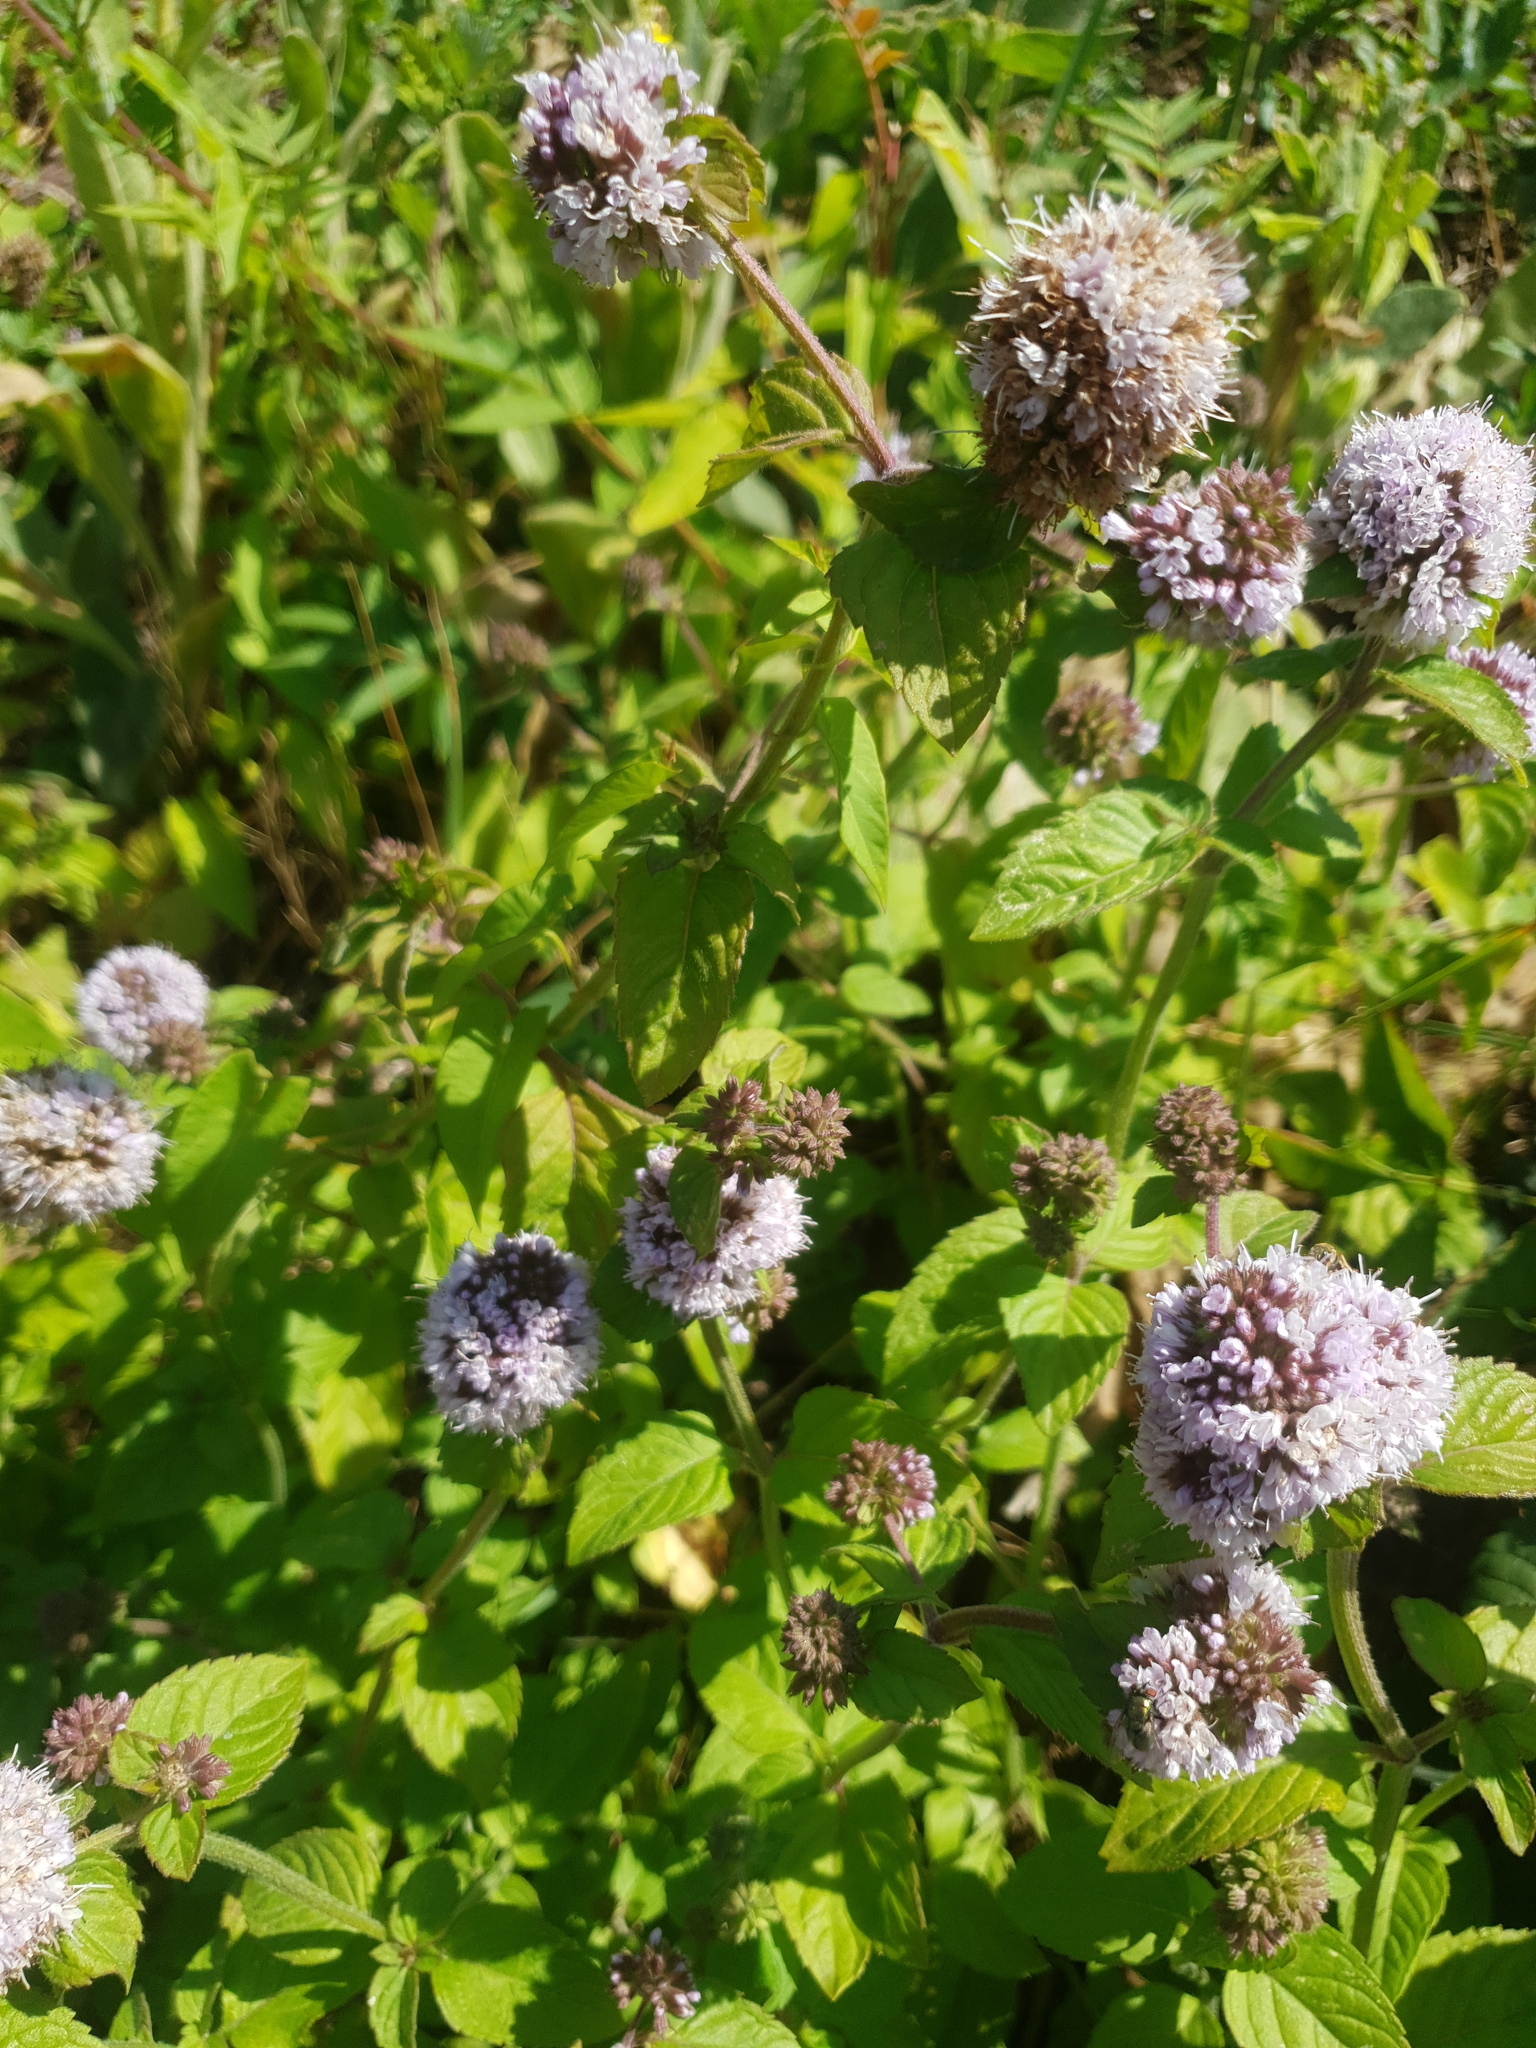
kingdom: Plantae
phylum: Tracheophyta
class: Magnoliopsida
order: Lamiales
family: Lamiaceae
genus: Mentha
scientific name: Mentha aquatica
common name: Water mint
